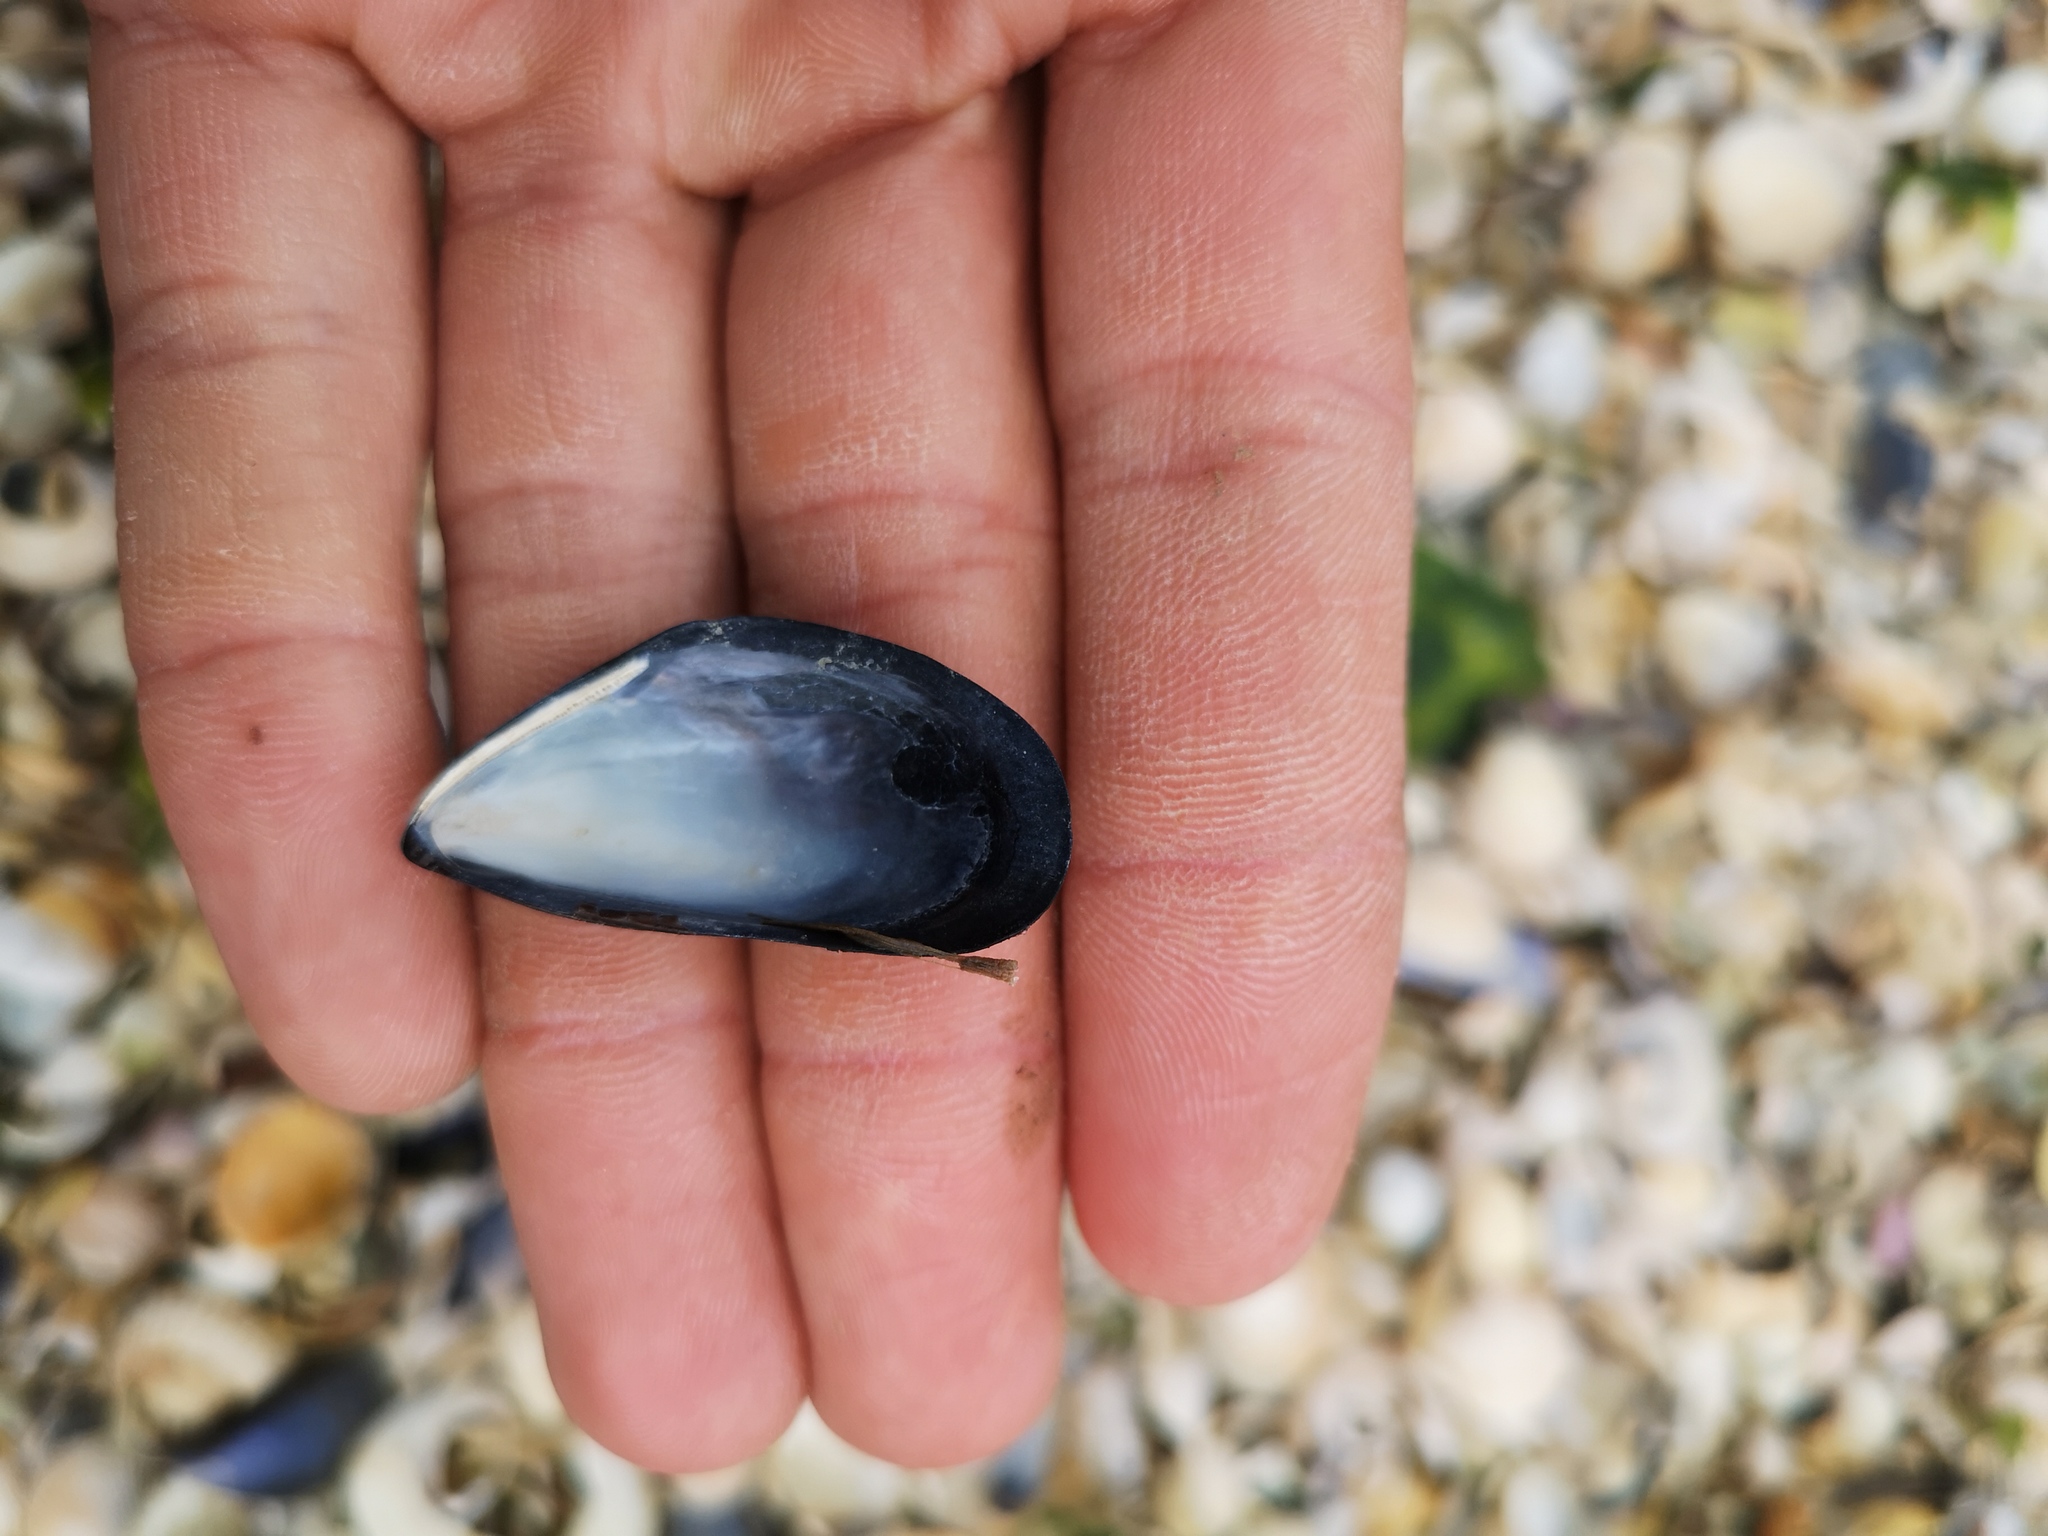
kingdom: Animalia
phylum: Mollusca
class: Bivalvia
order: Mytilida
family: Mytilidae
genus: Mytilus
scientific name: Mytilus edulis
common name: Blue mussel
